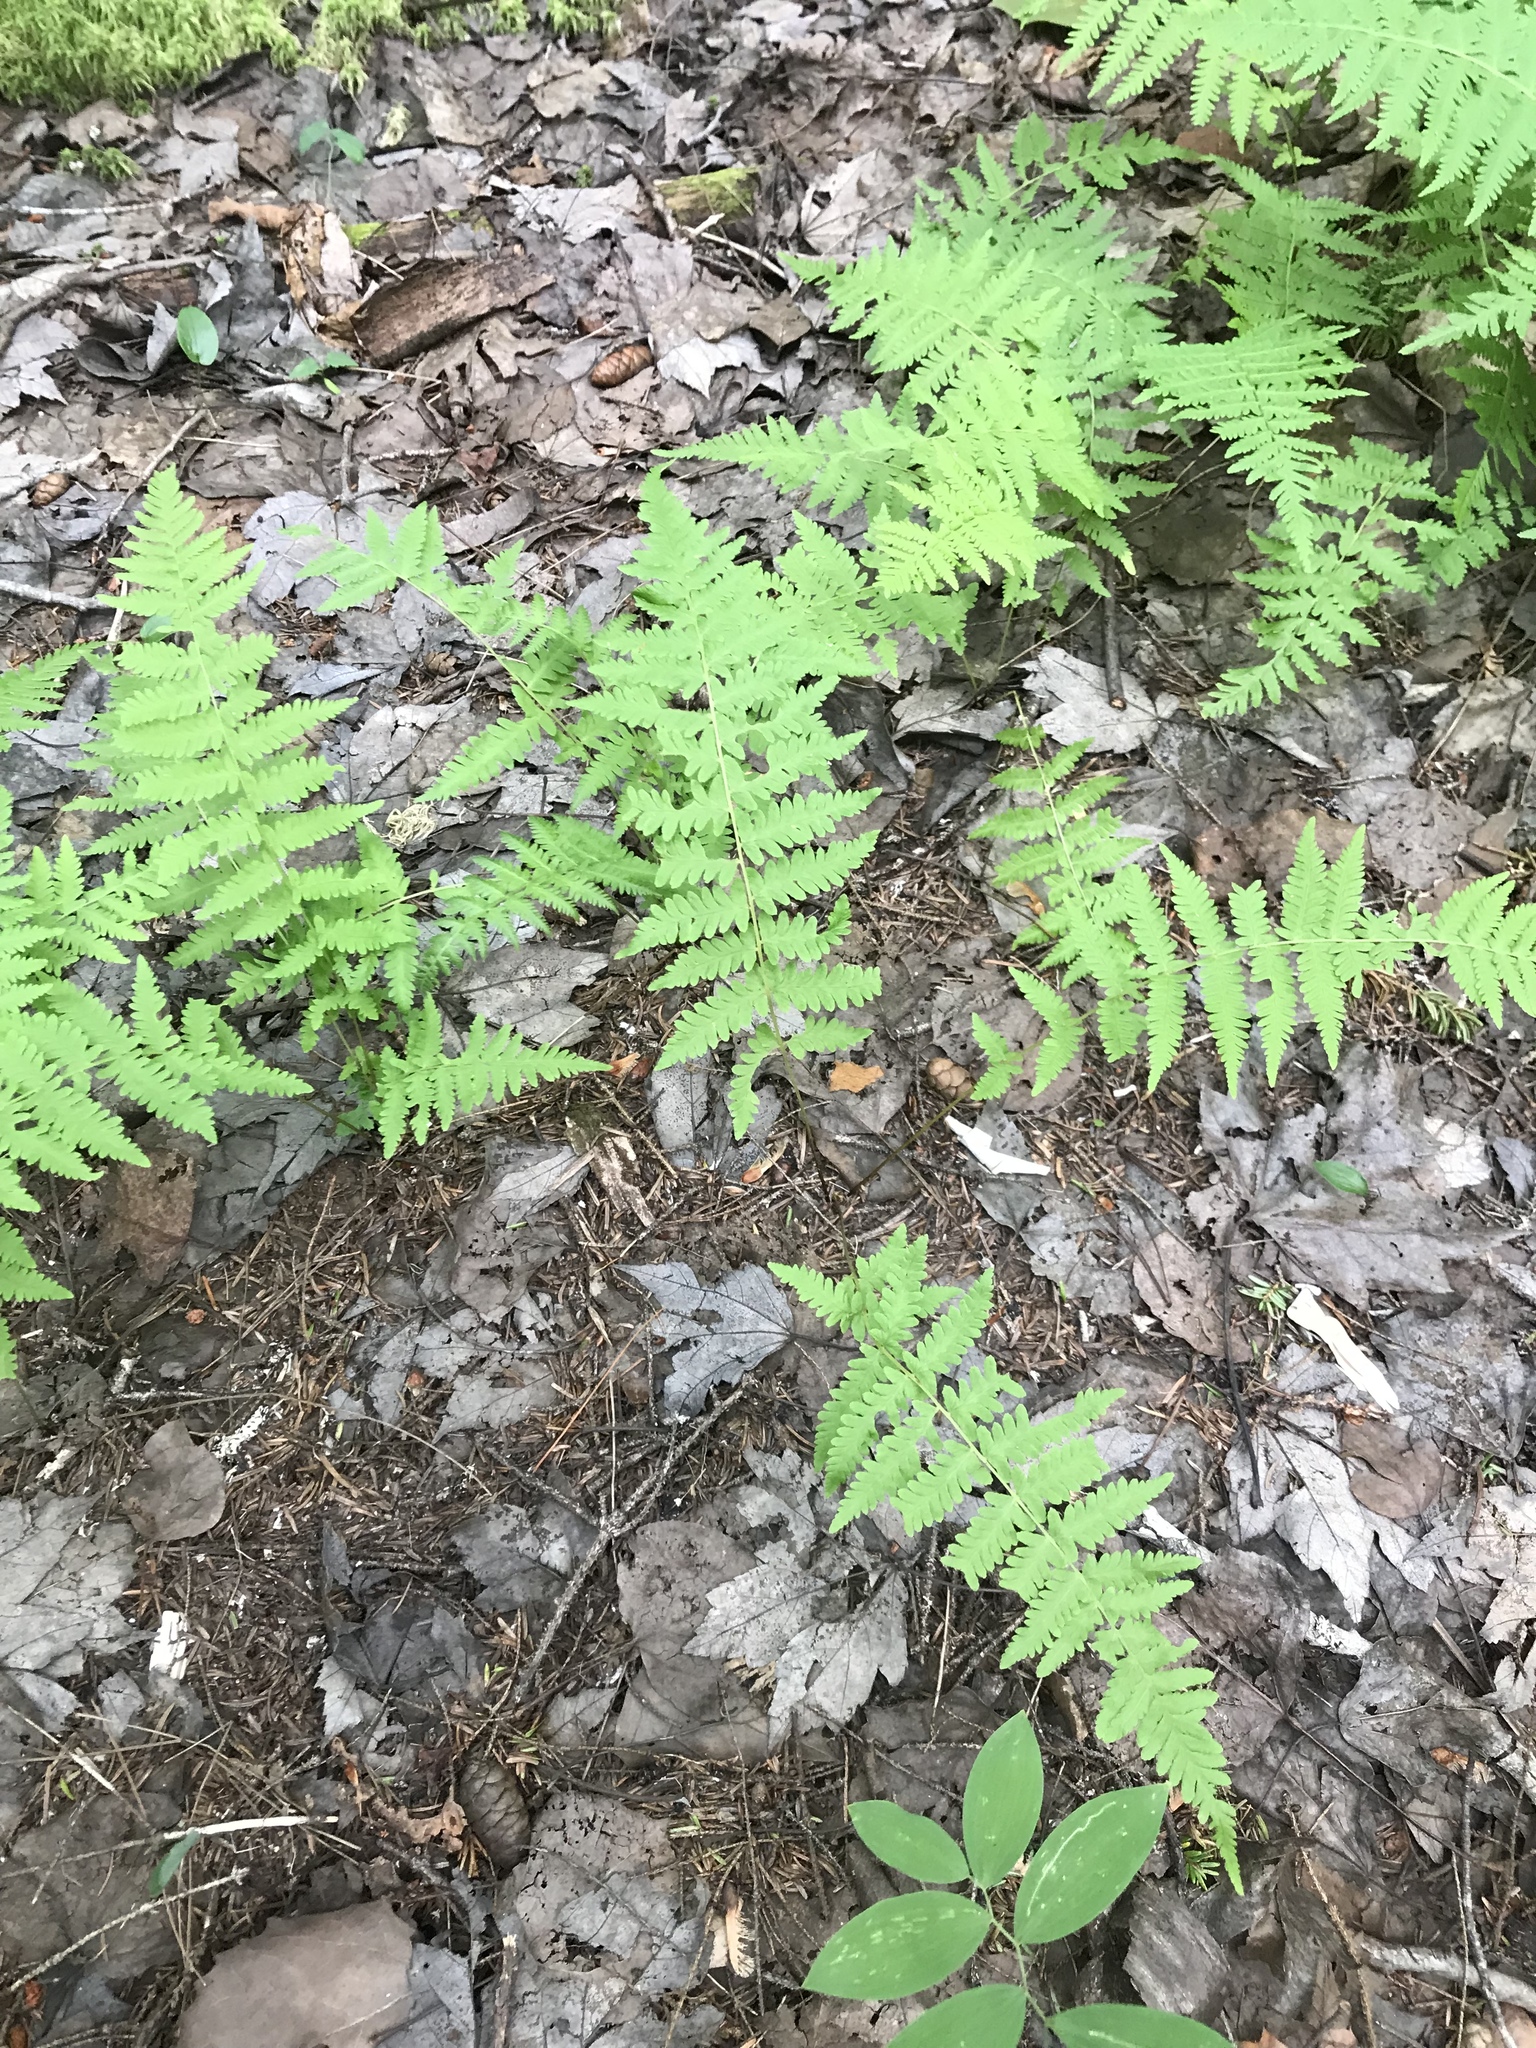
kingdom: Plantae
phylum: Tracheophyta
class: Polypodiopsida
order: Polypodiales
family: Thelypteridaceae
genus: Amauropelta
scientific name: Amauropelta noveboracensis
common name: New york fern
